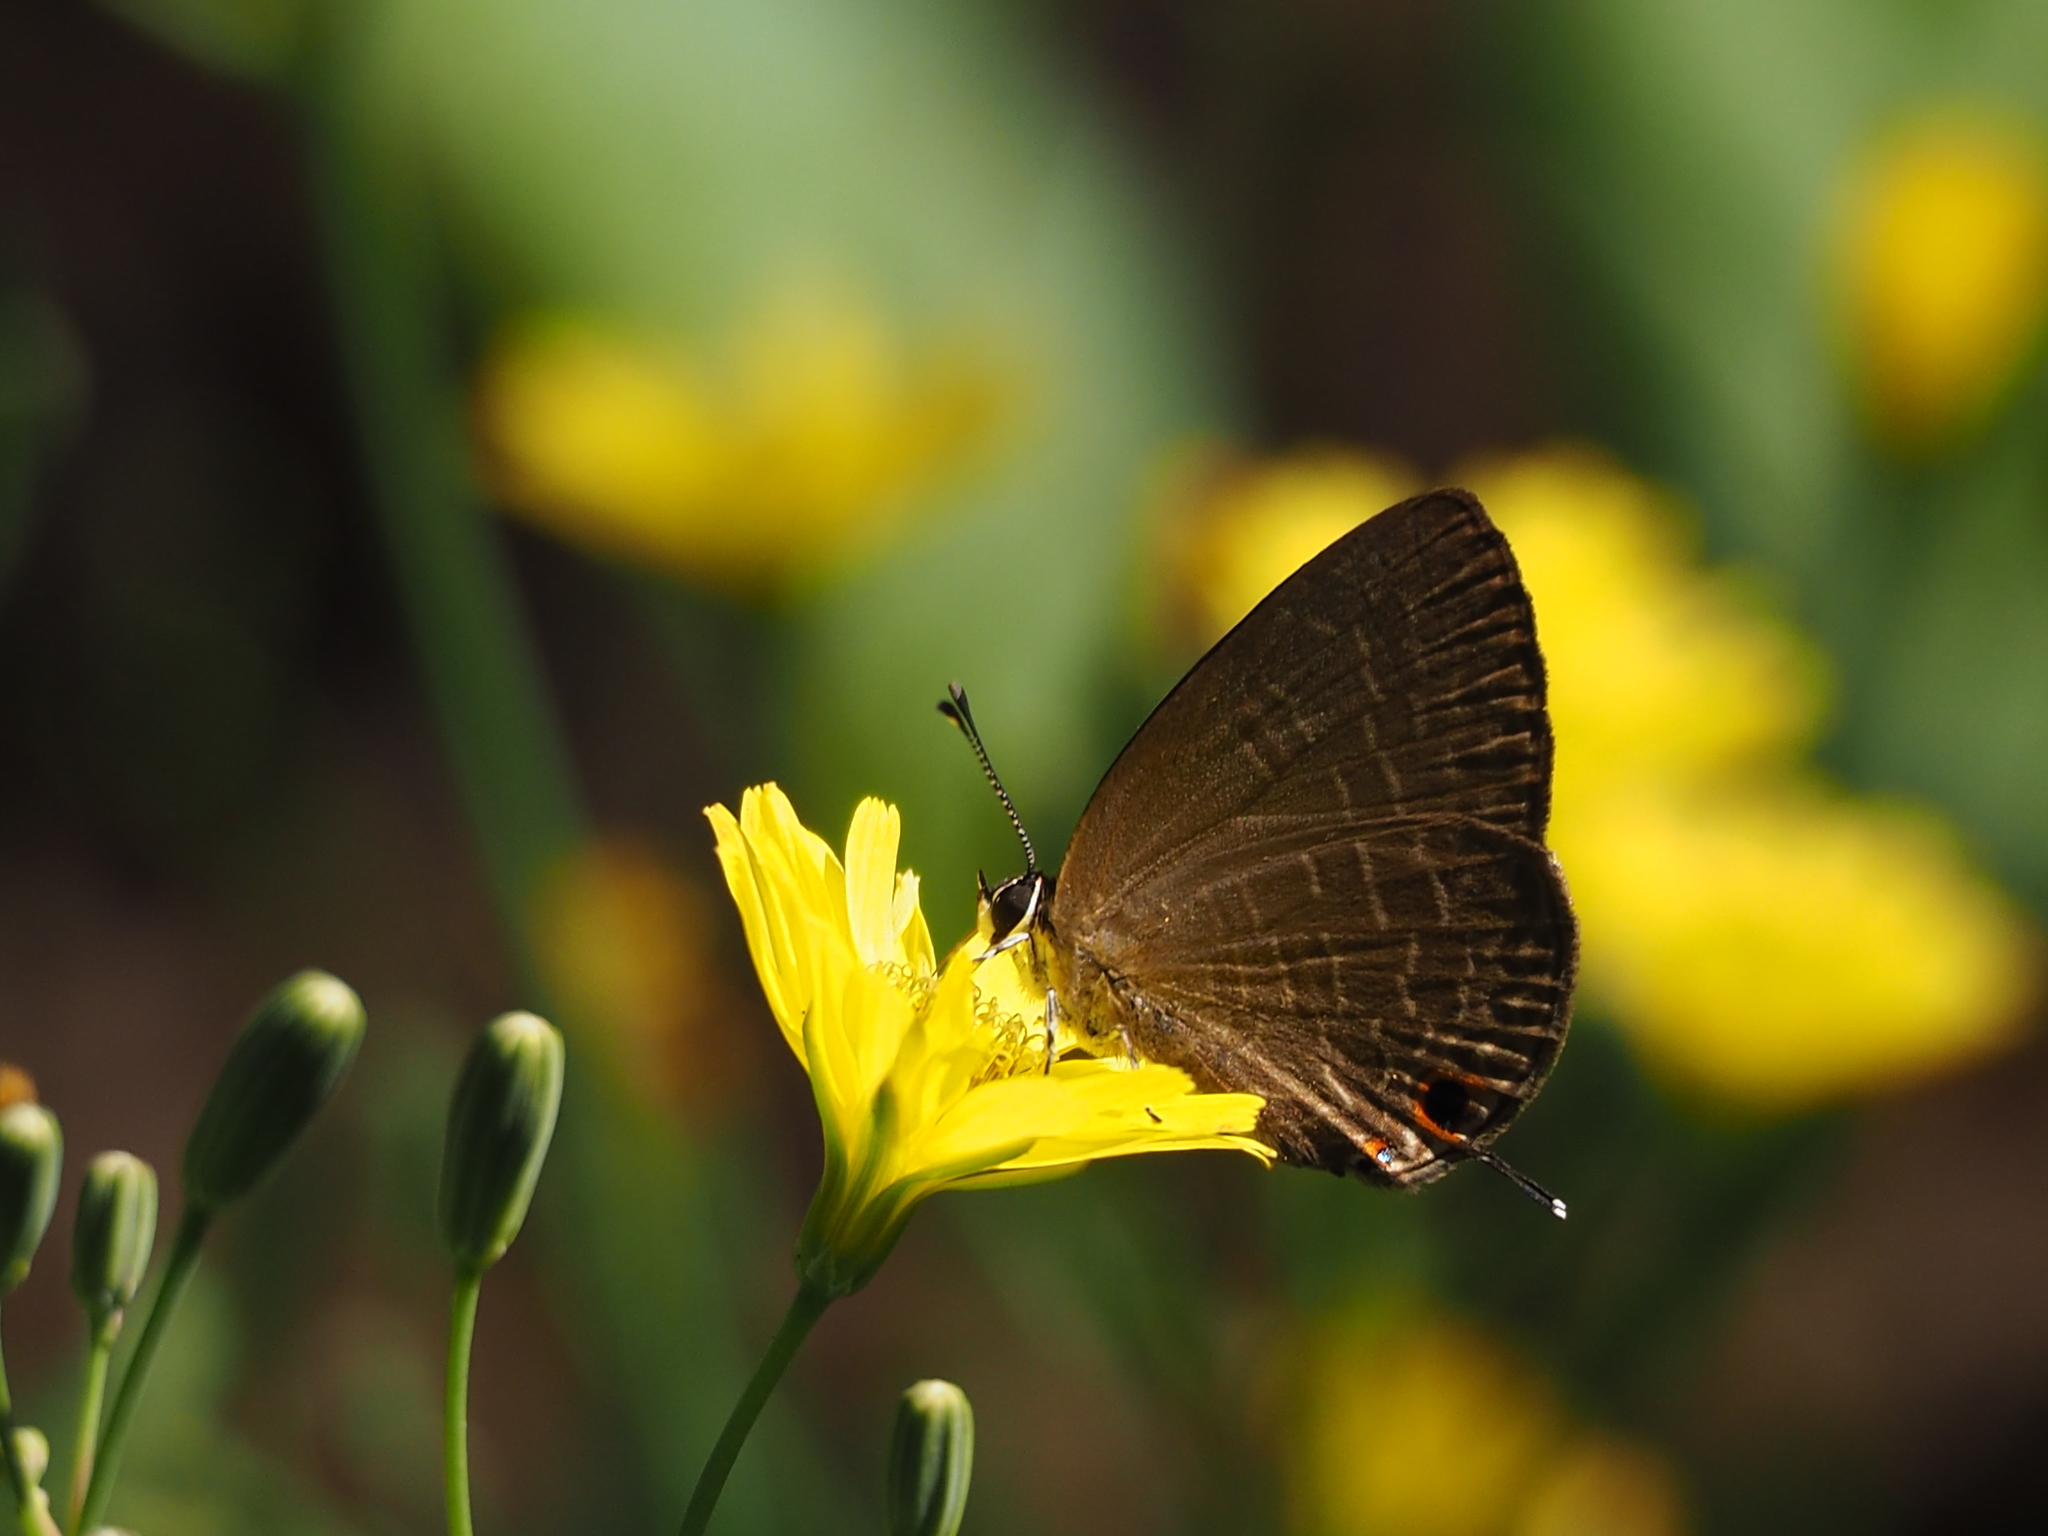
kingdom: Animalia
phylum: Arthropoda
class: Insecta
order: Lepidoptera
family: Lycaenidae
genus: Jamides
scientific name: Jamides bochus
